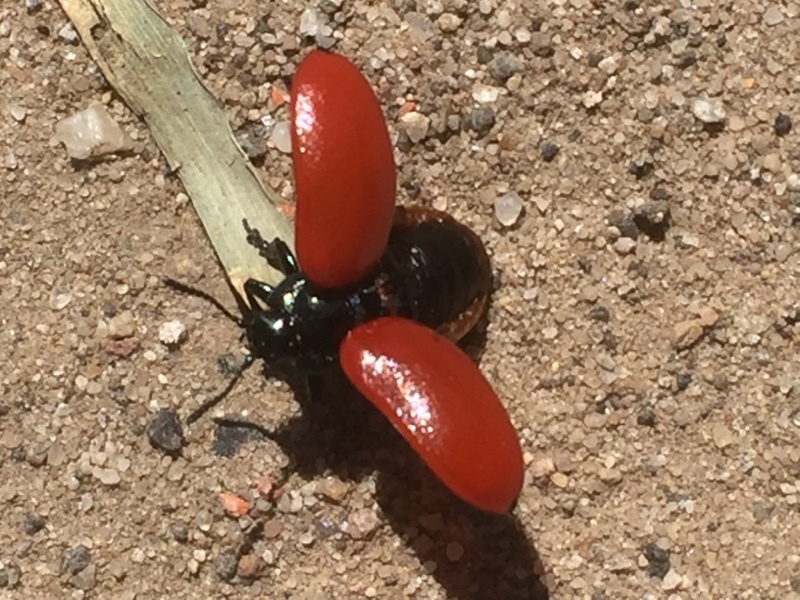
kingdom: Animalia
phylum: Arthropoda
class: Insecta
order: Coleoptera
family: Chrysomelidae
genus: Chrysomela
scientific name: Chrysomela populi
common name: Red poplar leaf beetle
